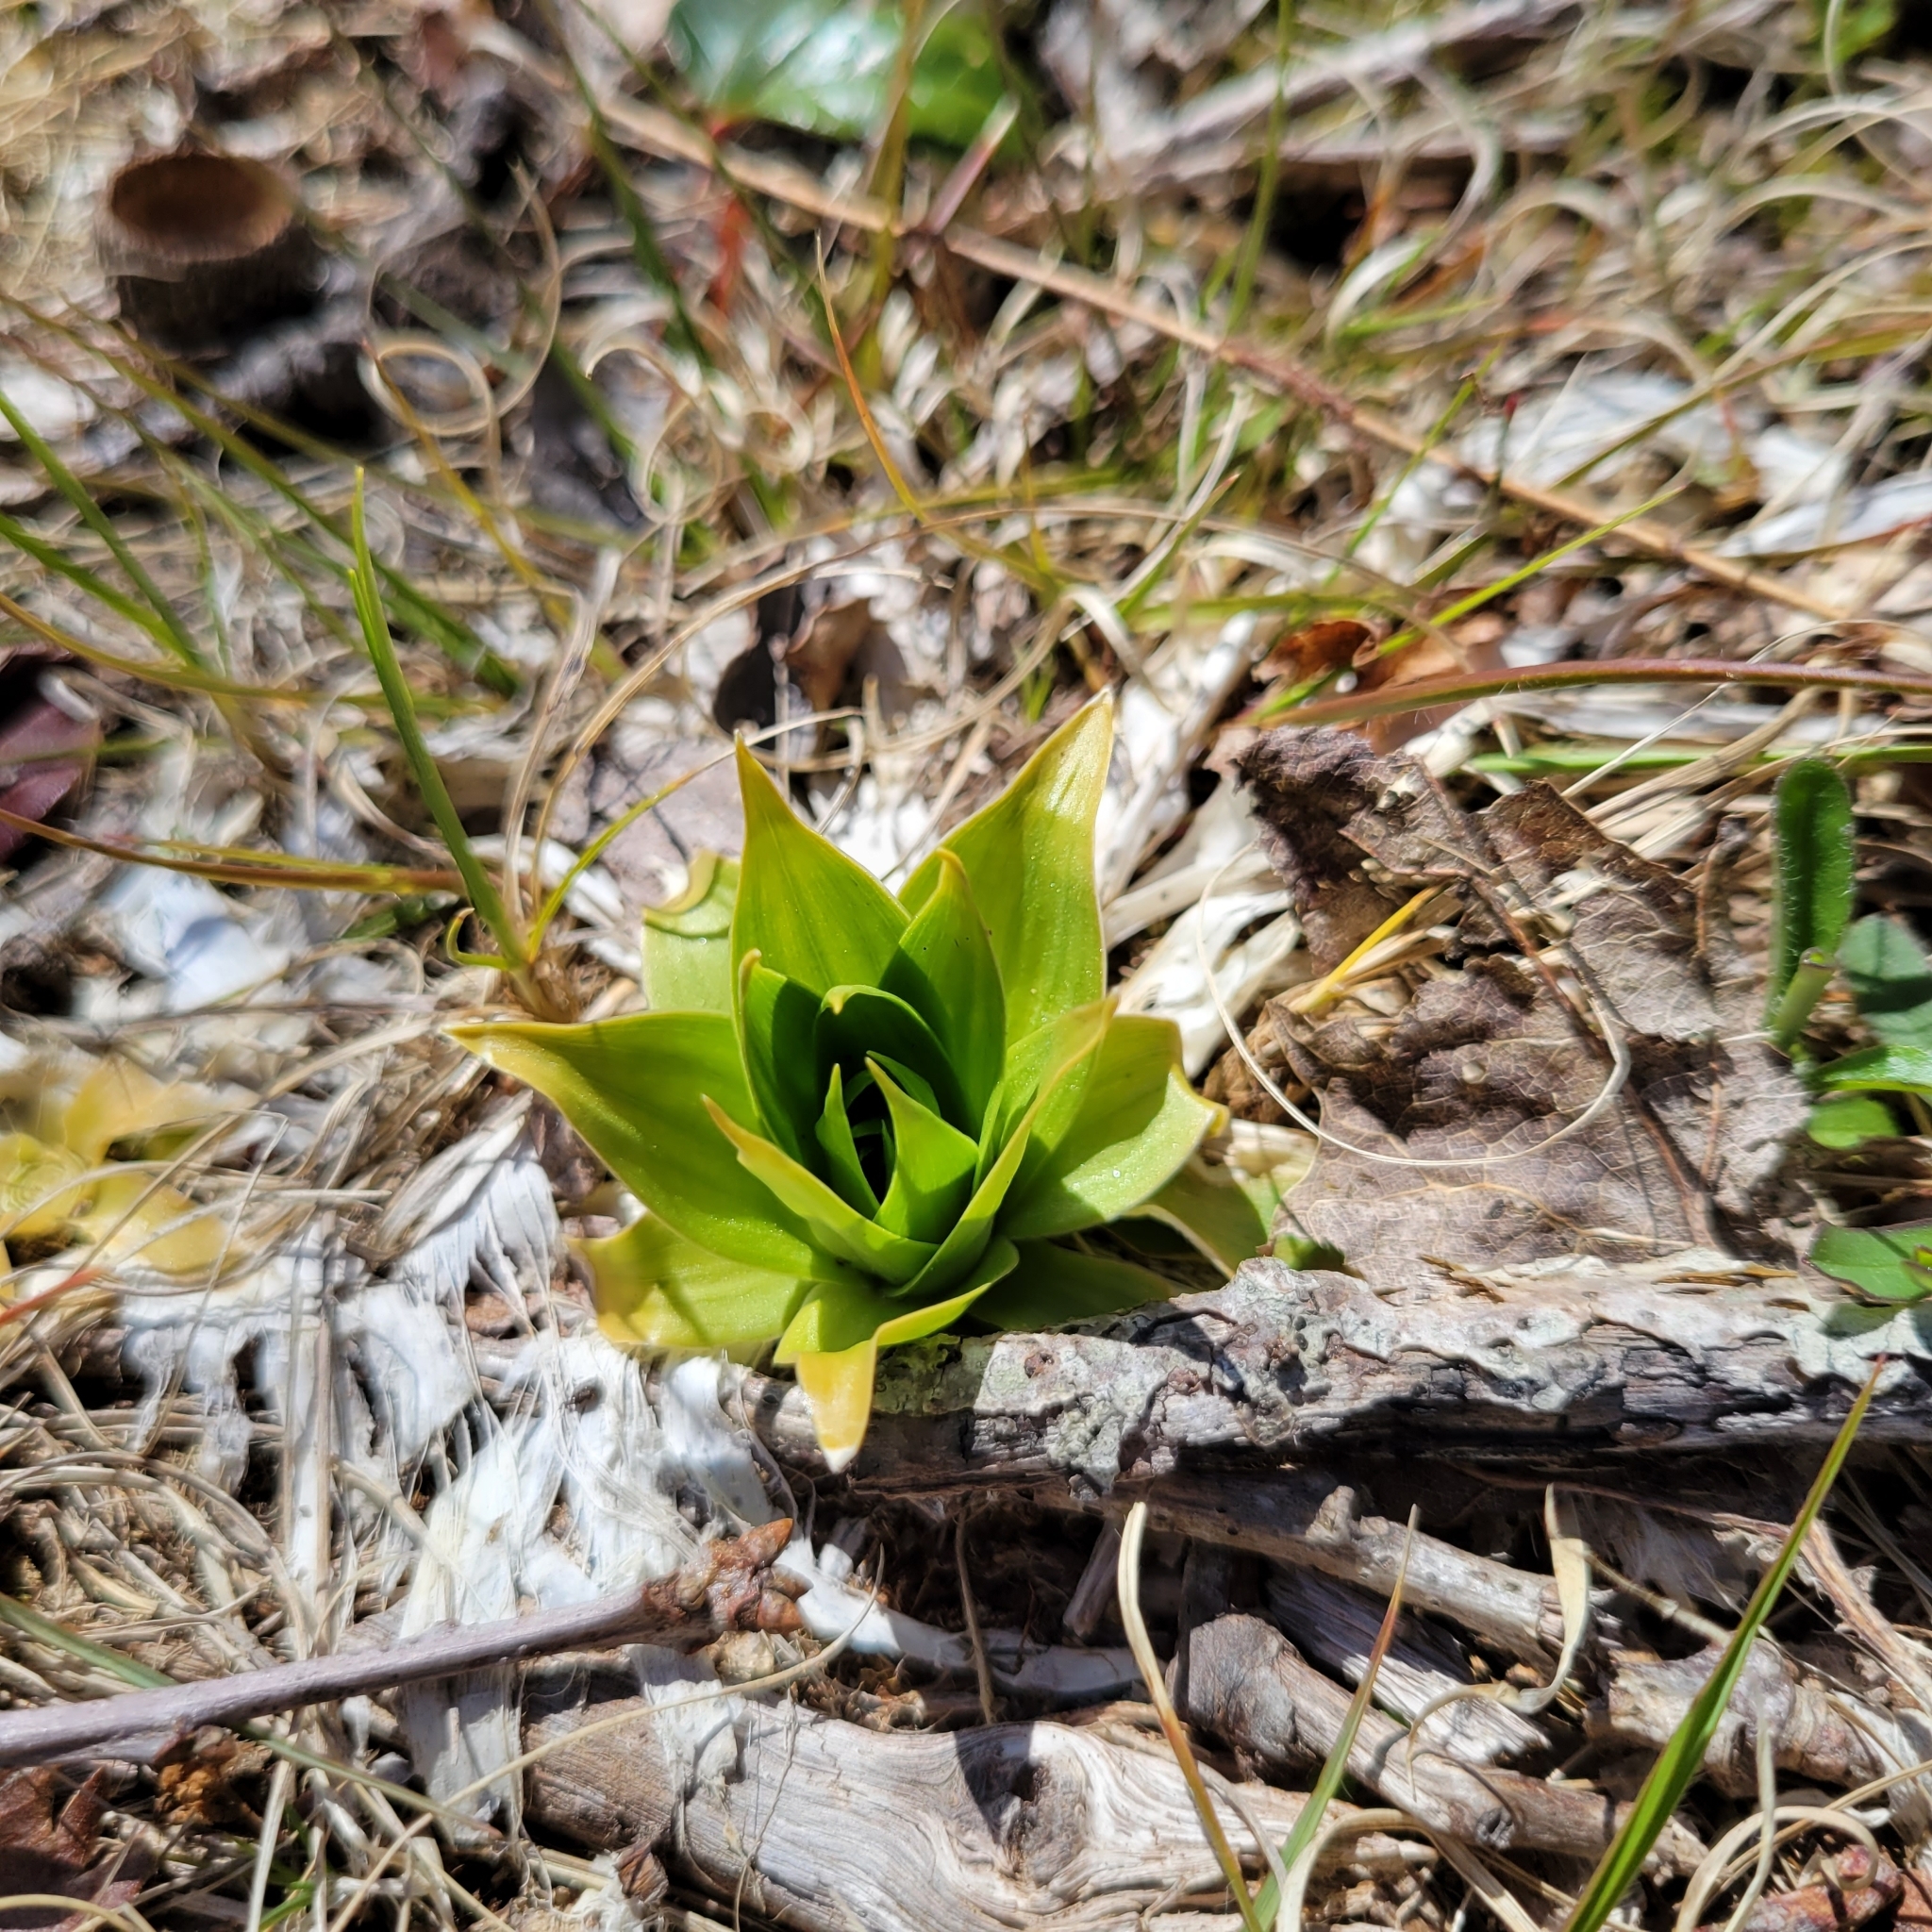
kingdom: Plantae
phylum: Tracheophyta
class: Liliopsida
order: Dioscoreales
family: Nartheciaceae
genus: Aletris
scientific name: Aletris farinosa
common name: Colicroot
